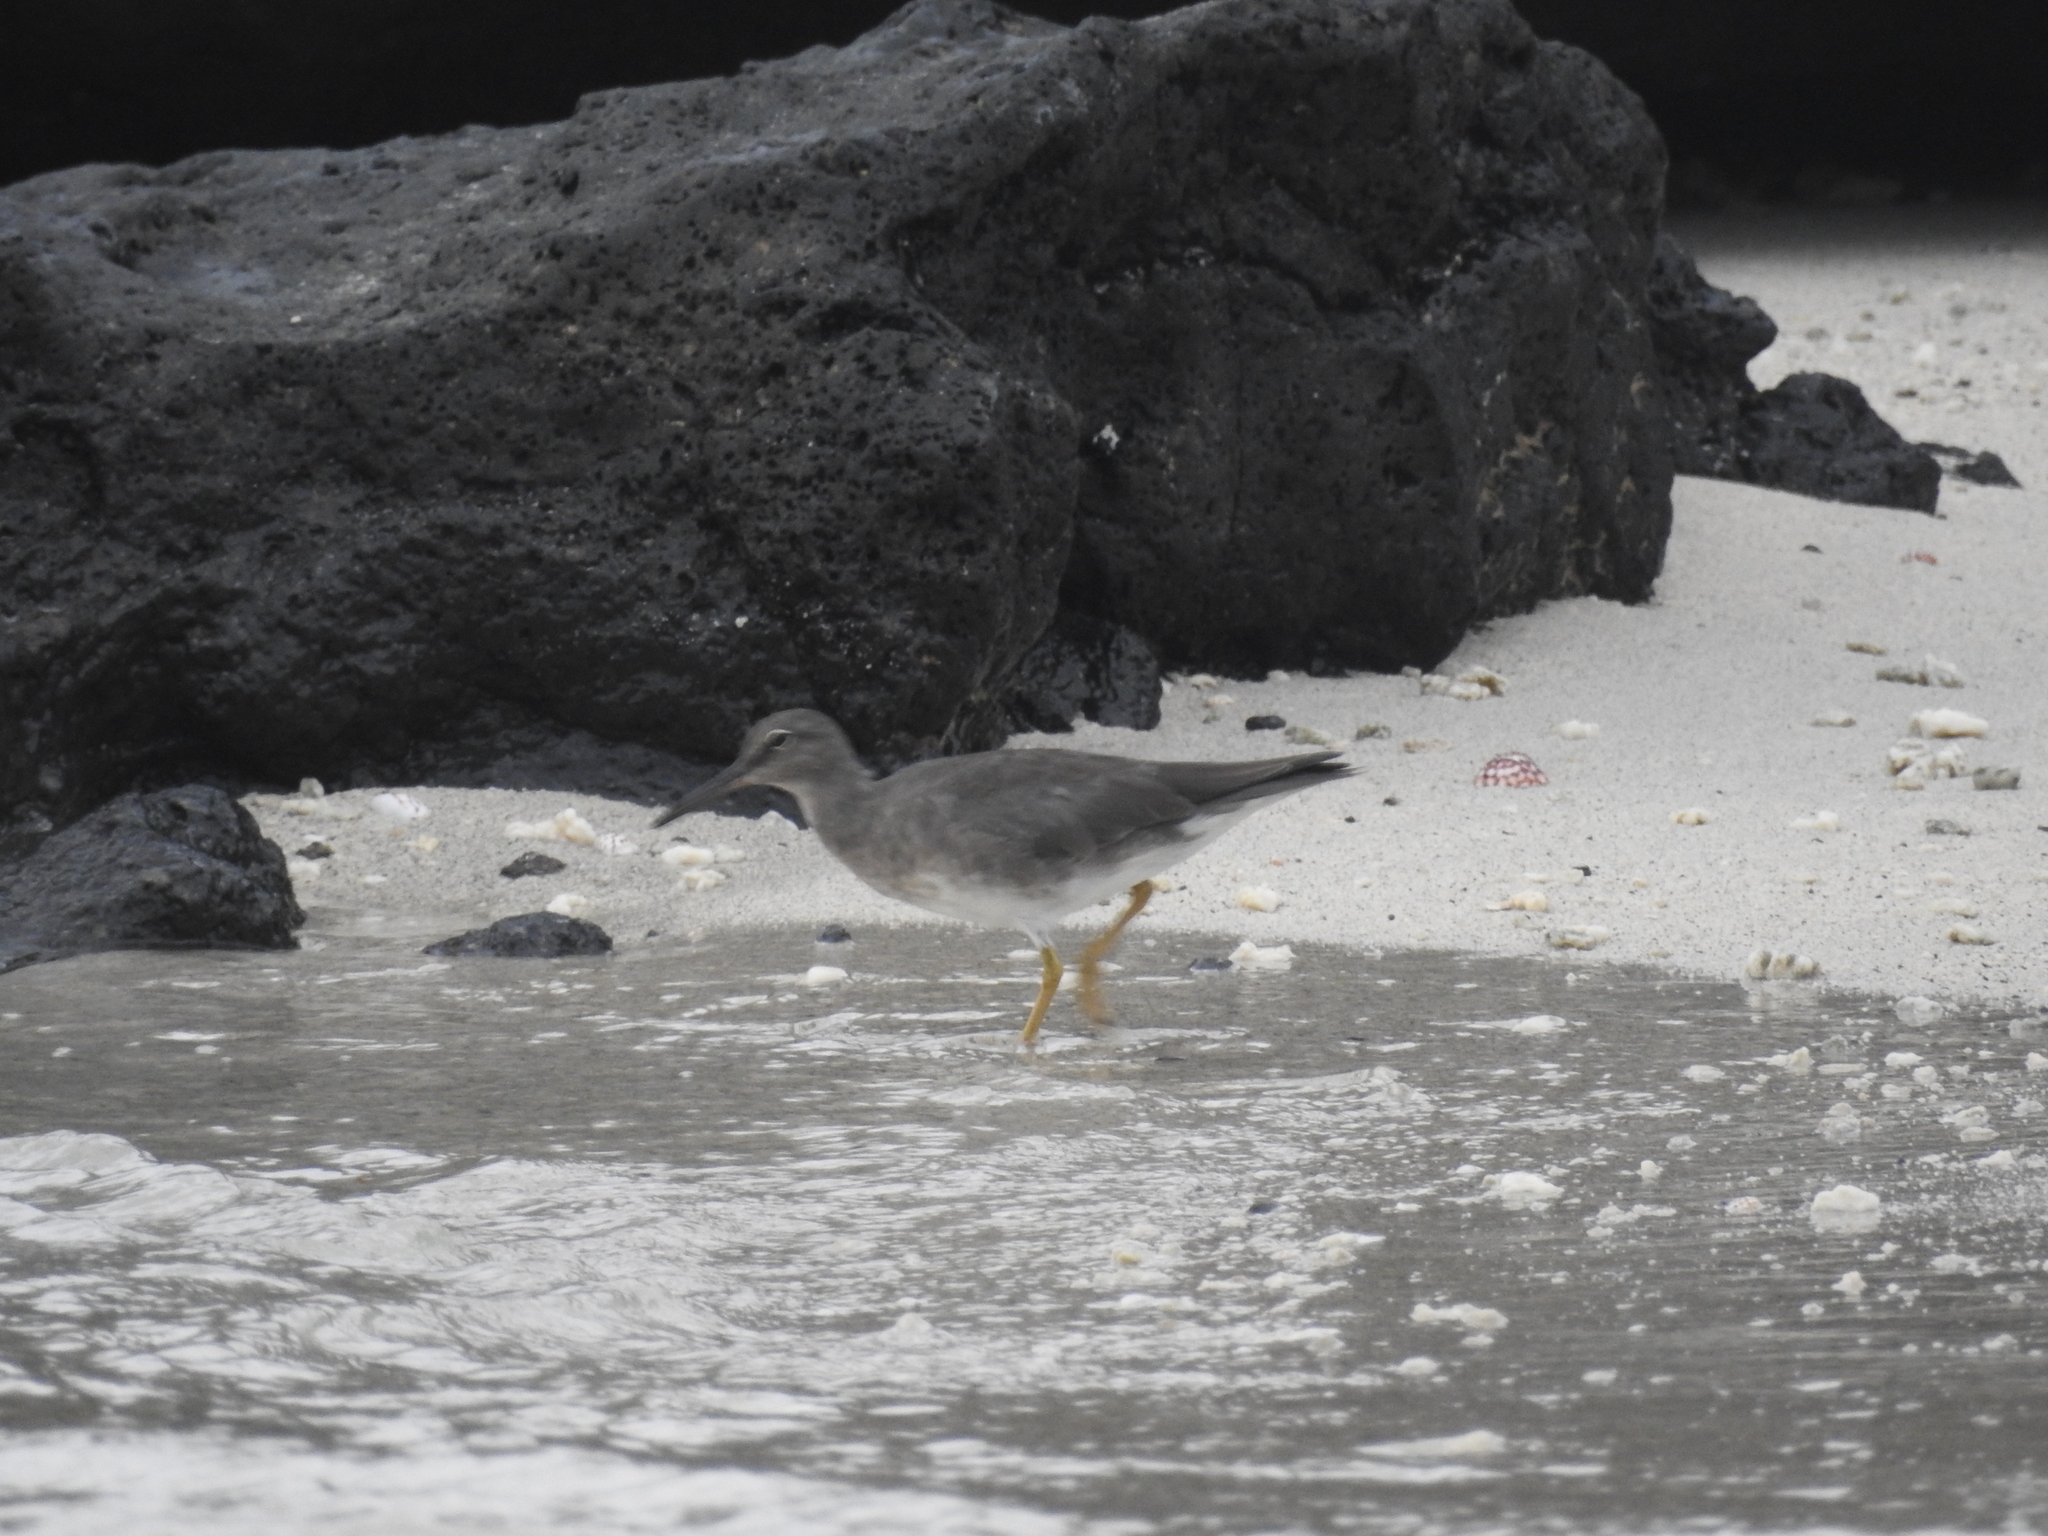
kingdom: Animalia
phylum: Chordata
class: Aves
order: Charadriiformes
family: Scolopacidae
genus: Tringa
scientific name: Tringa incana
